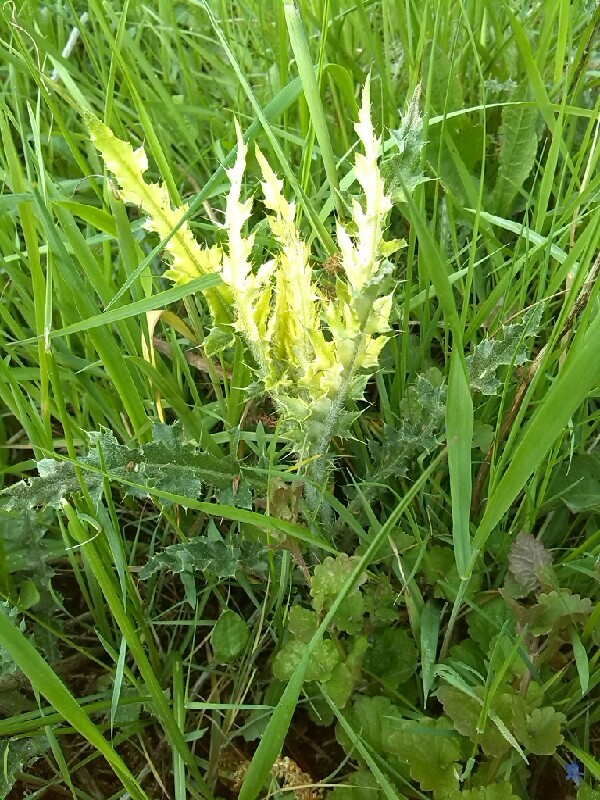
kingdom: Bacteria
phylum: Proteobacteria
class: Gammaproteobacteria
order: Pseudomonadales
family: Pseudomonadaceae
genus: Pseudomonas
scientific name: Pseudomonas syringae
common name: Bacterial speck
